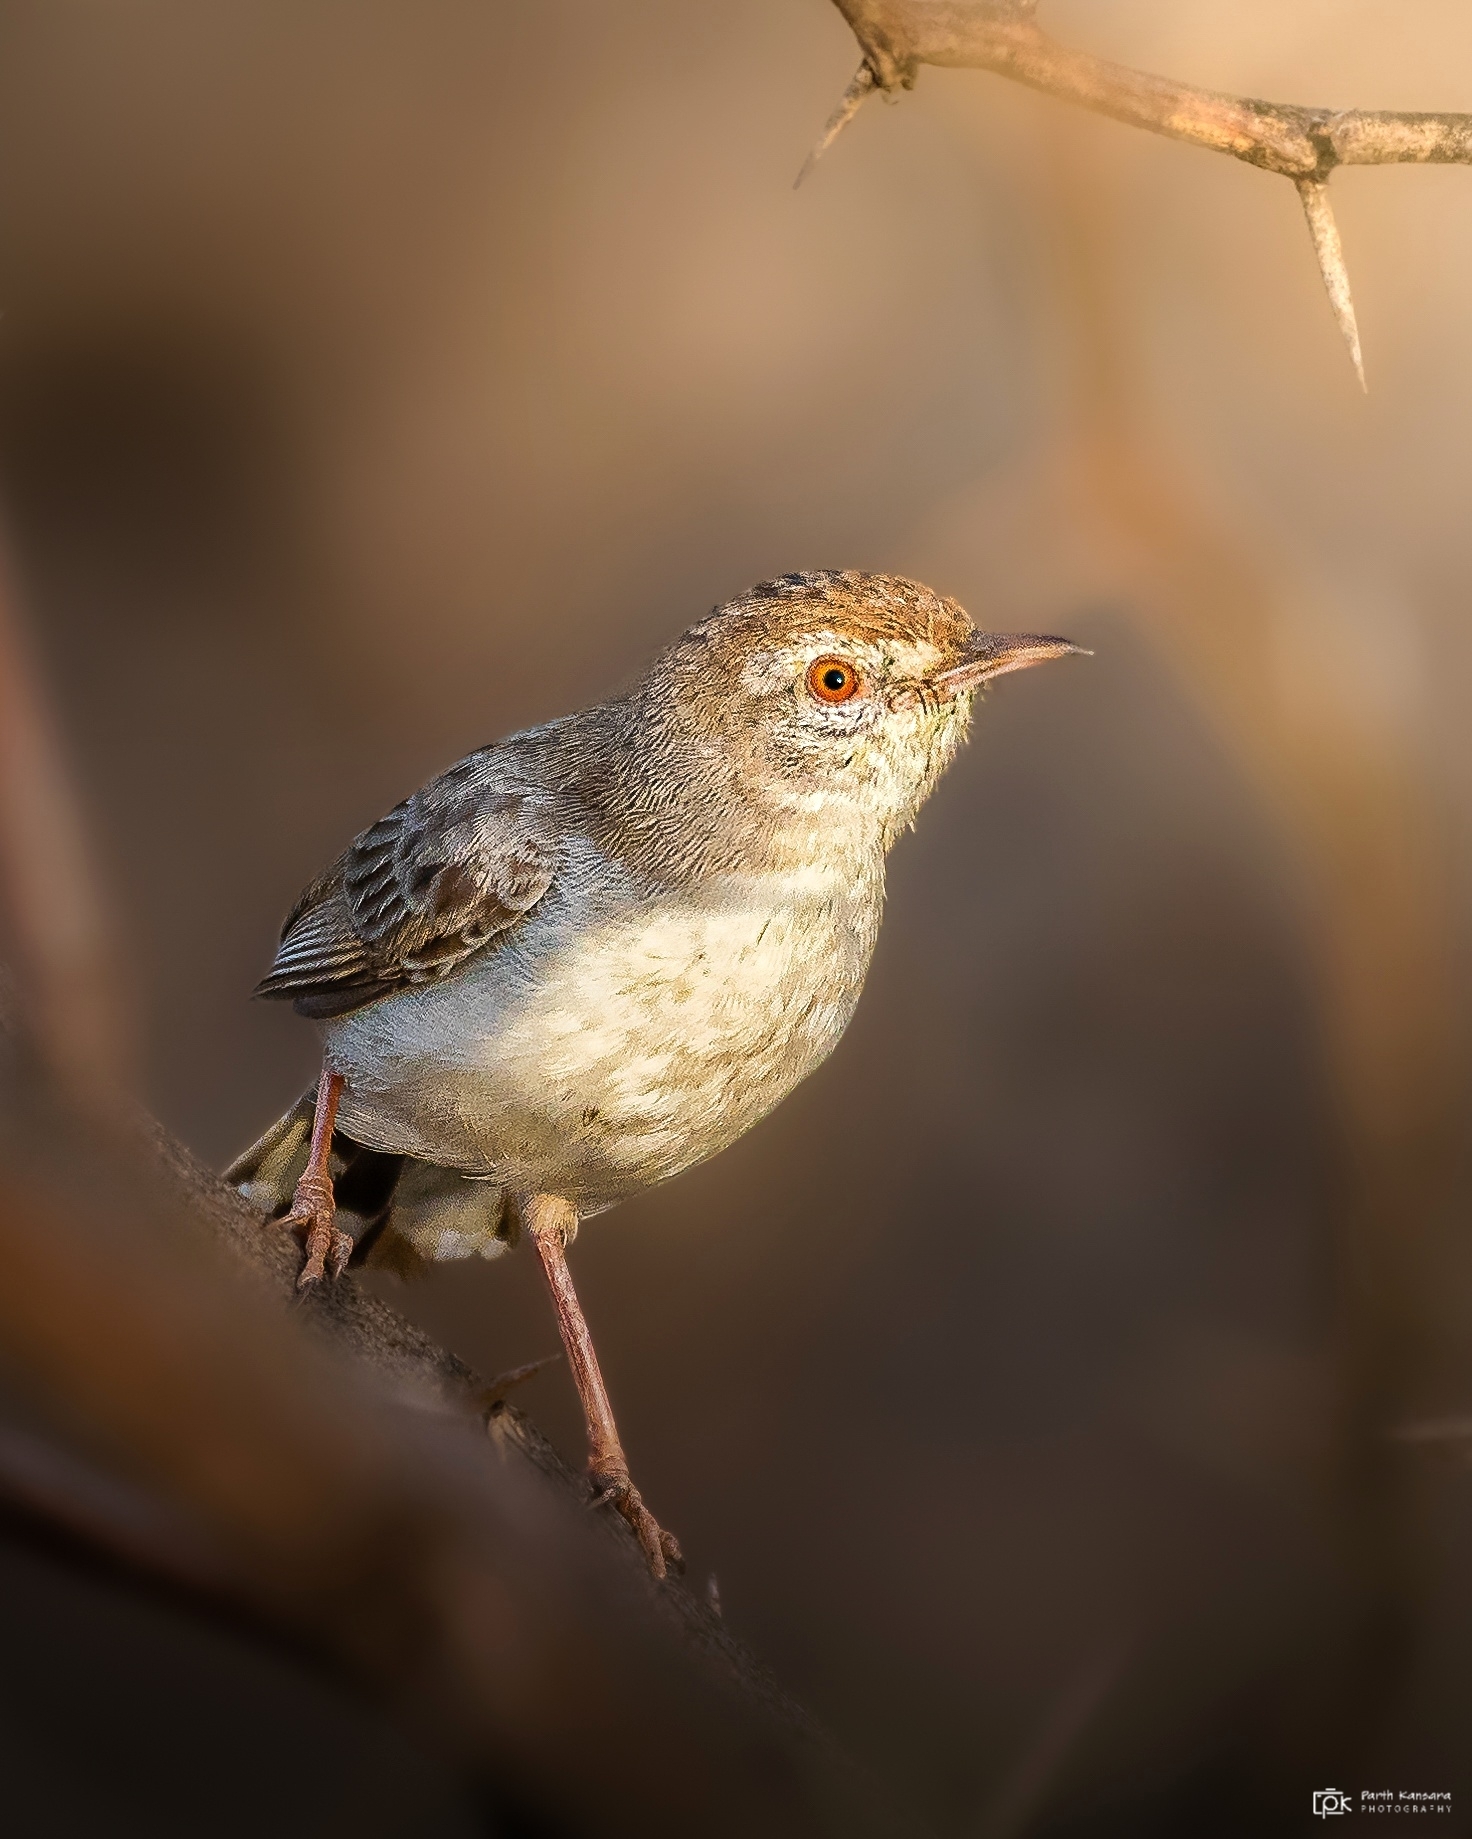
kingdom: Animalia
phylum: Chordata
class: Aves
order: Passeriformes
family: Cisticolidae
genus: Prinia
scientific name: Prinia buchanani
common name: Rufous-fronted prinia
